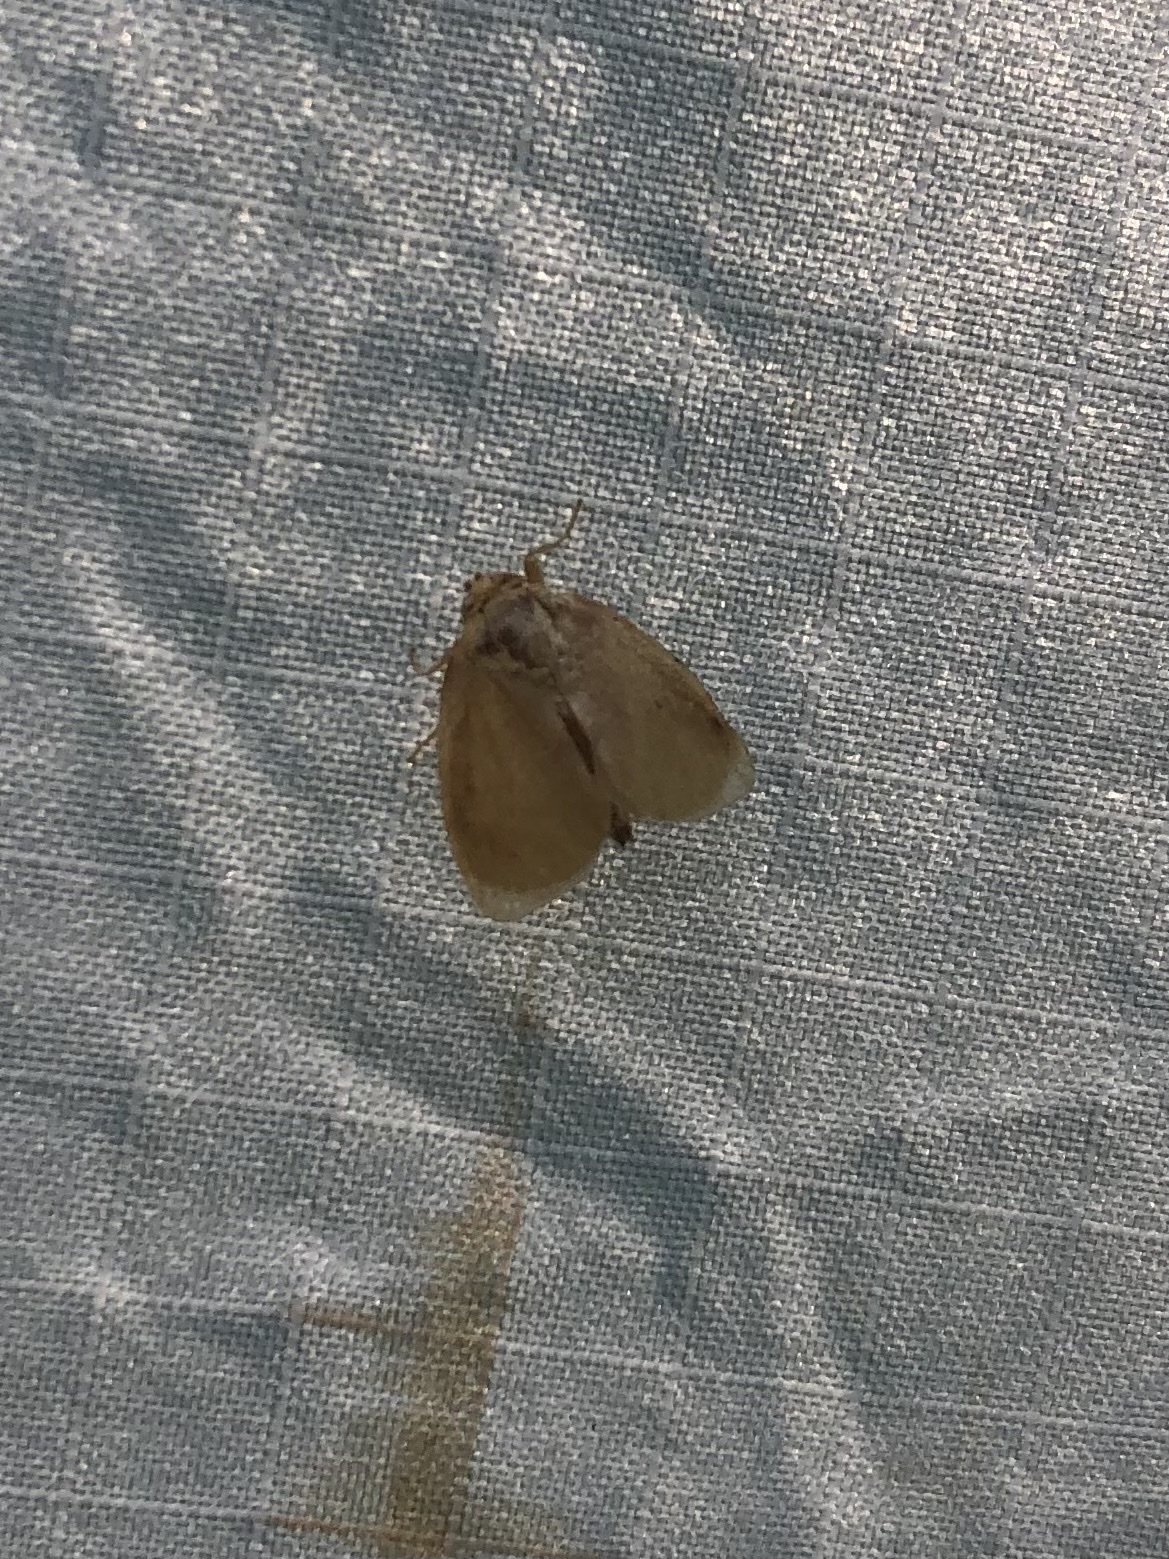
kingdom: Animalia
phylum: Arthropoda
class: Insecta
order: Lepidoptera
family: Limacodidae
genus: Tortricidia
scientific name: Tortricidia pallida
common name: Red-crossed button slug moth
